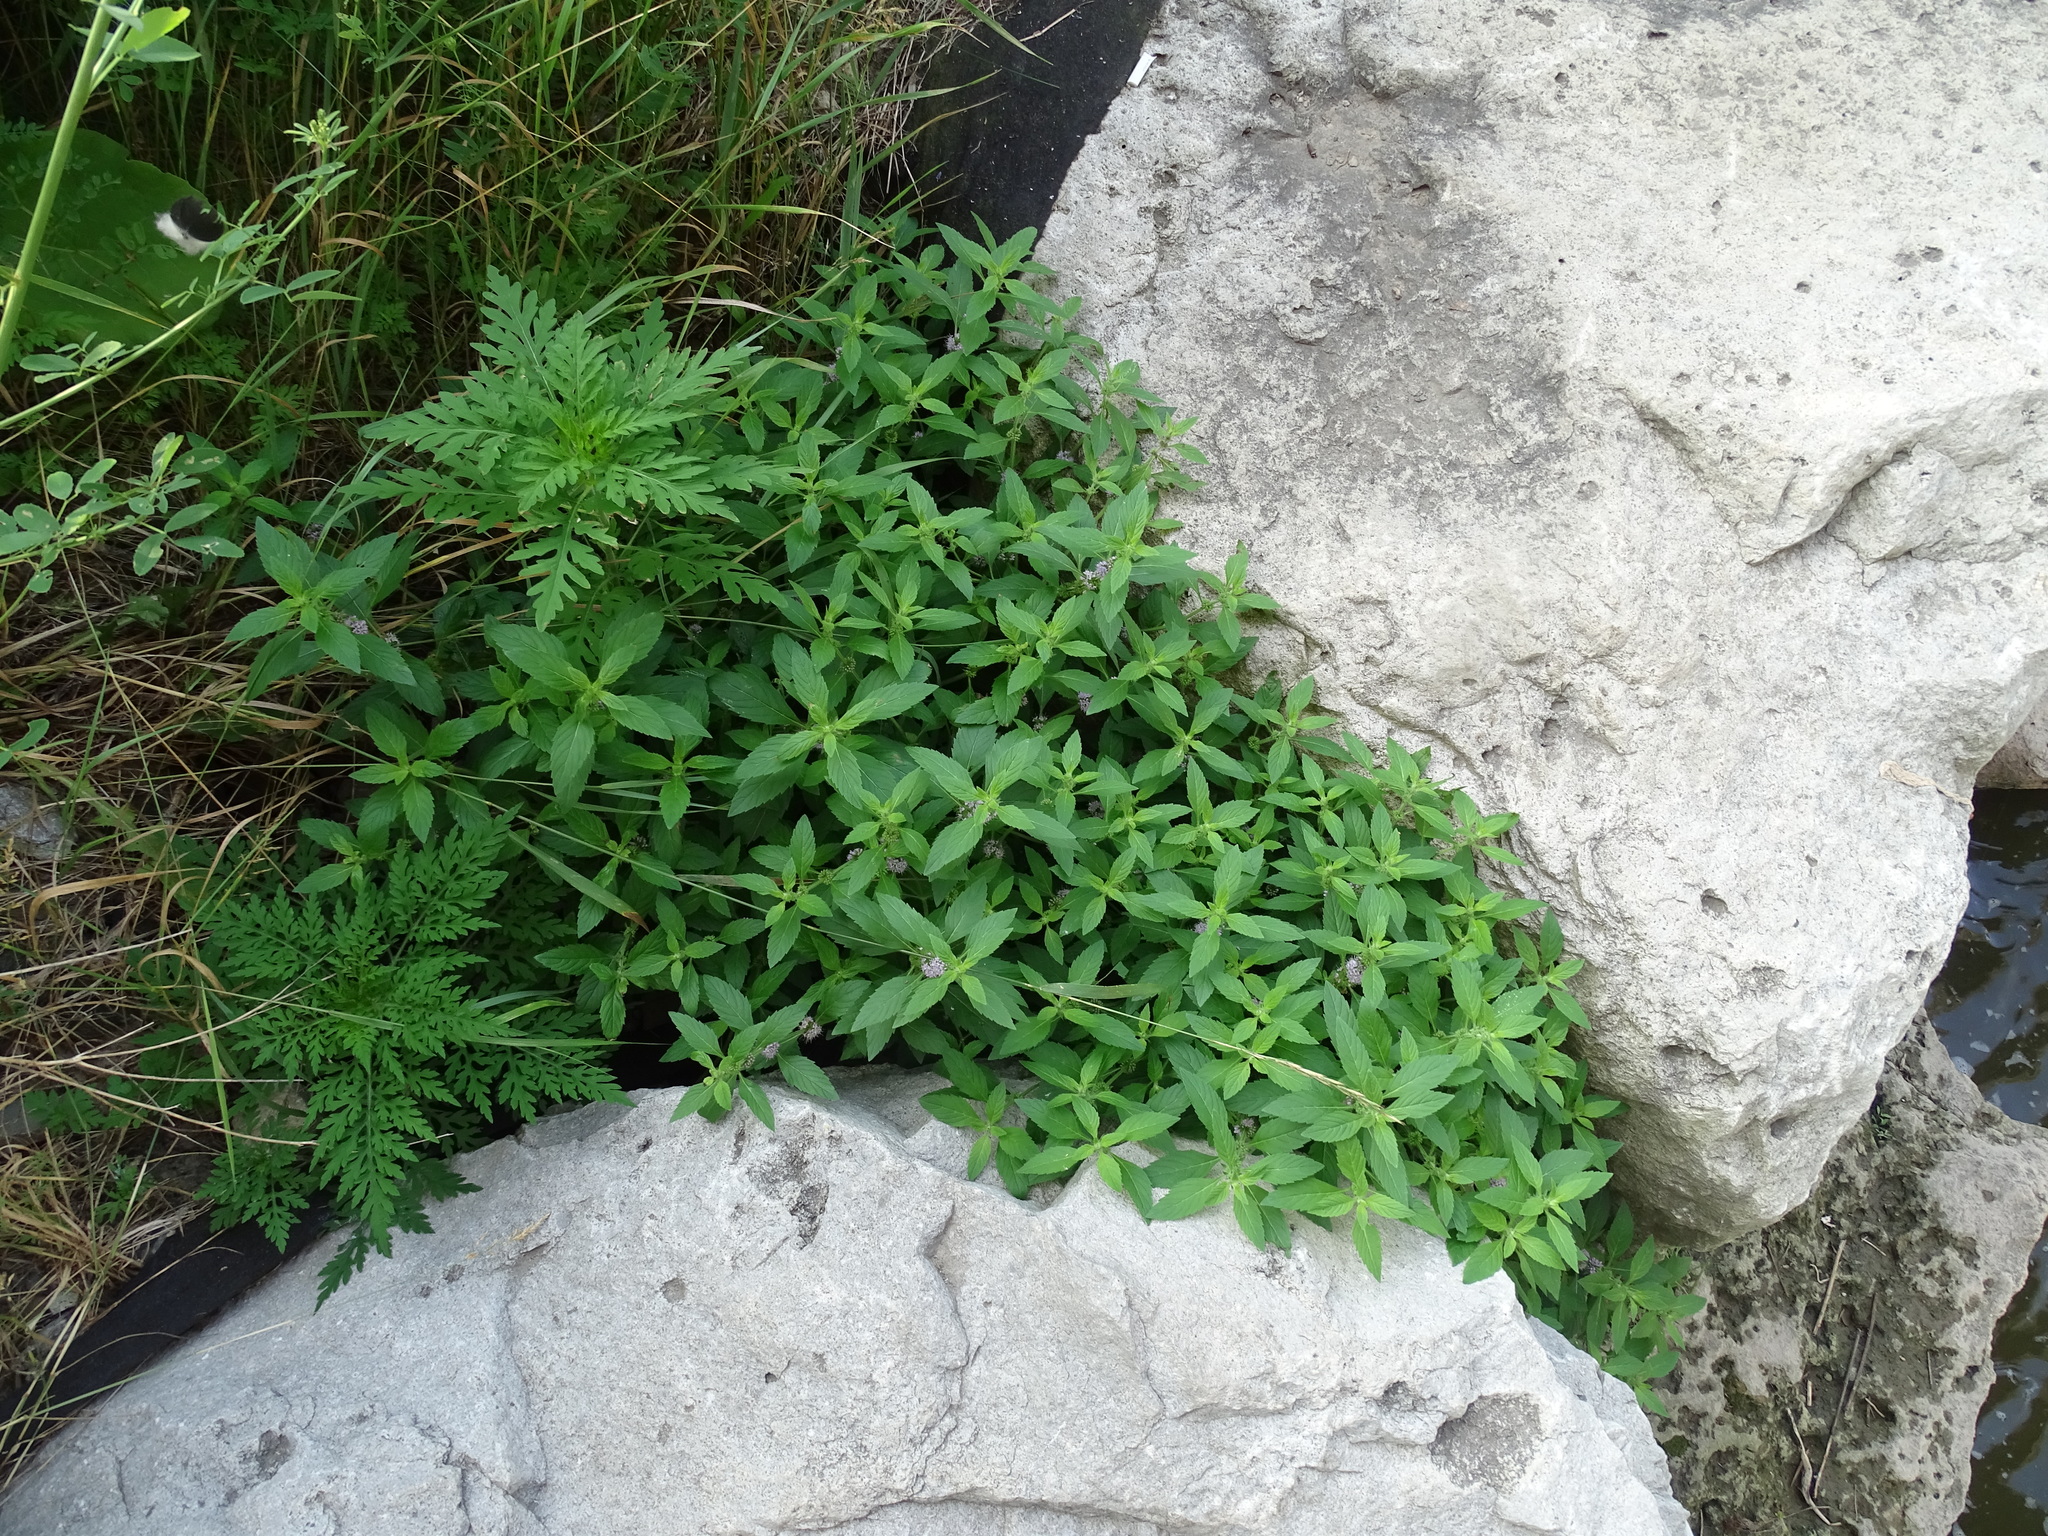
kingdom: Plantae
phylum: Tracheophyta
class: Magnoliopsida
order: Lamiales
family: Lamiaceae
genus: Mentha
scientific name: Mentha canadensis
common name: American corn mint
